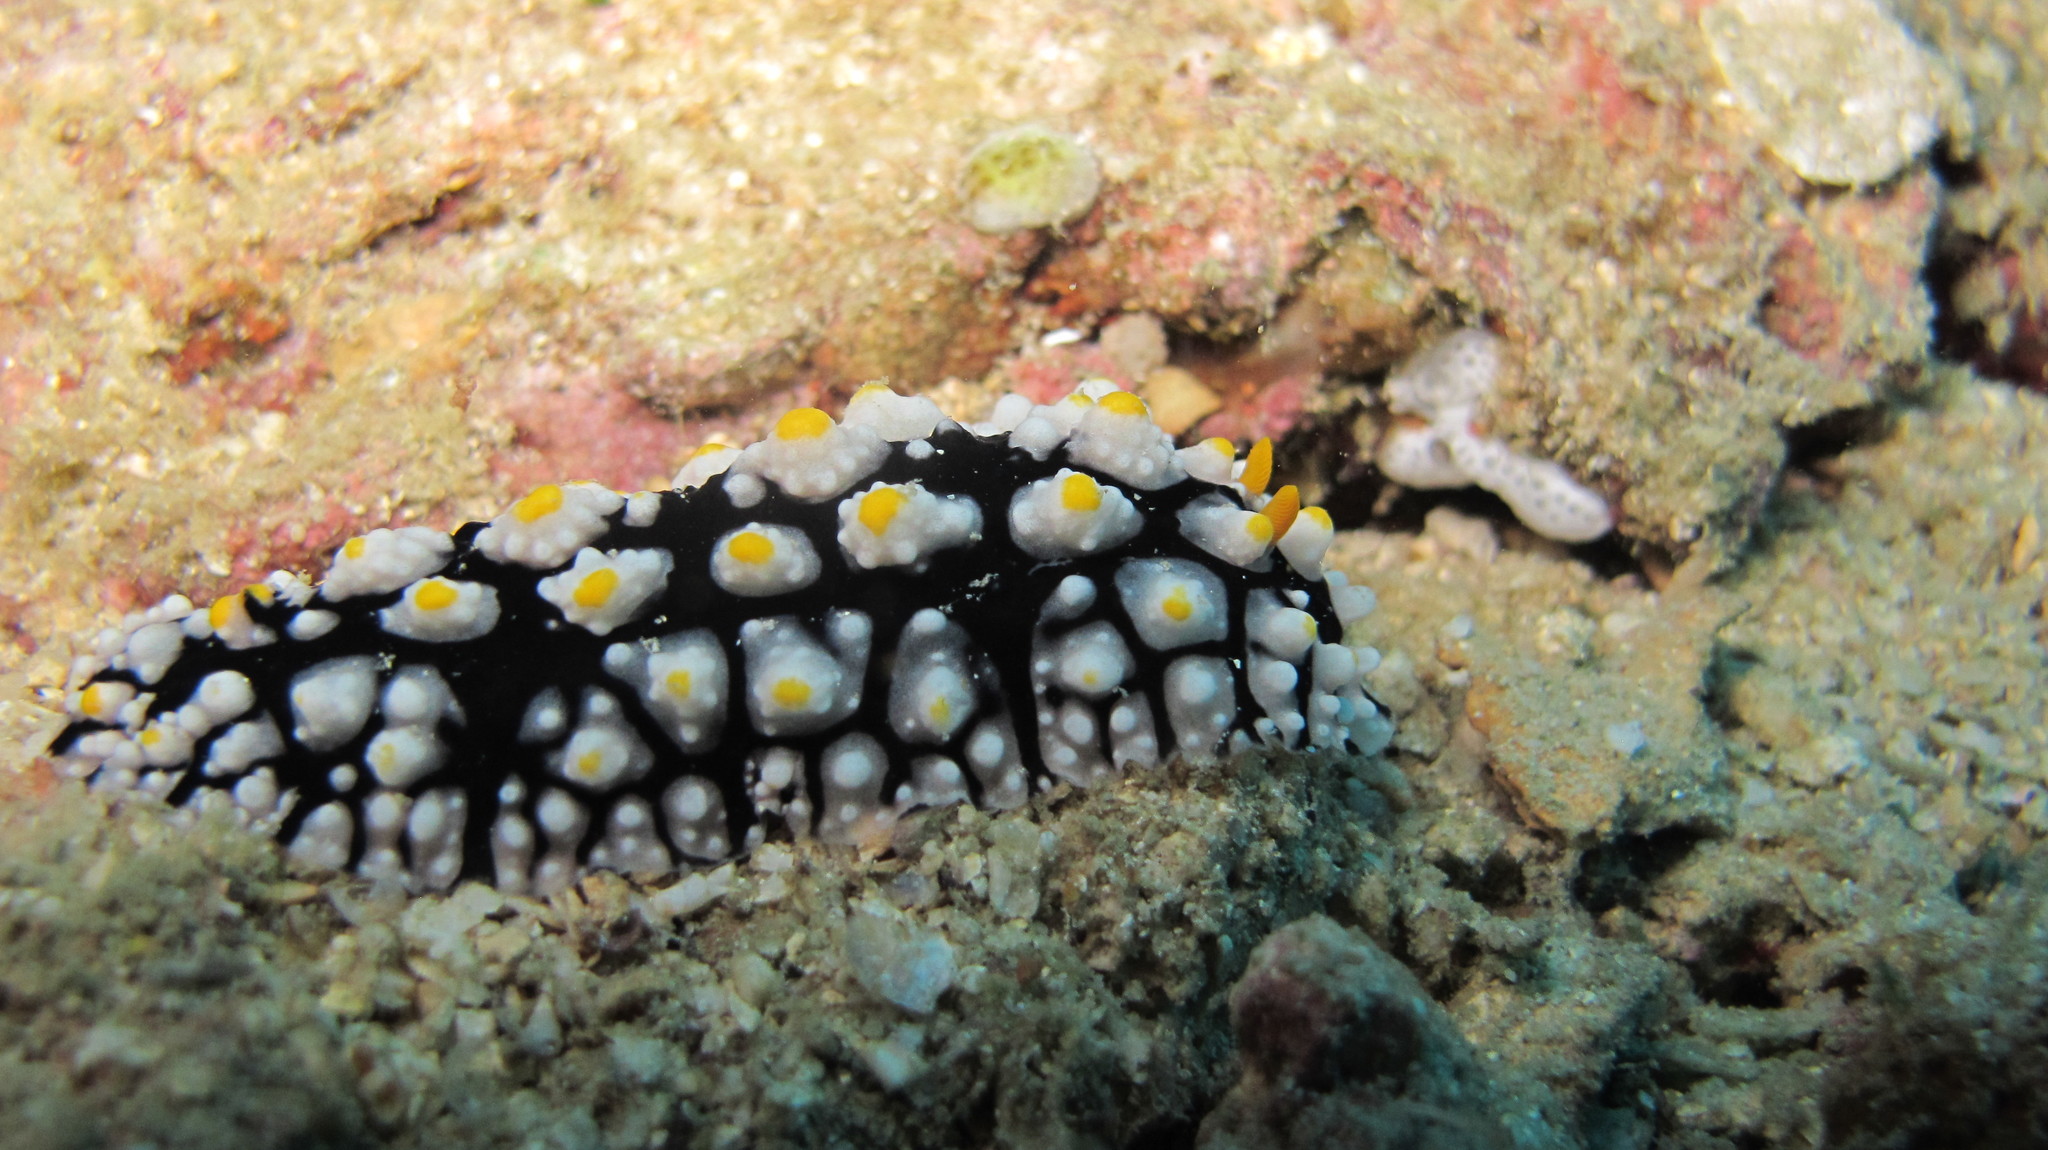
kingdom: Animalia
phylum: Mollusca
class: Gastropoda
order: Nudibranchia
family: Phyllidiidae
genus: Phyllidia
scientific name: Phyllidia elegans
